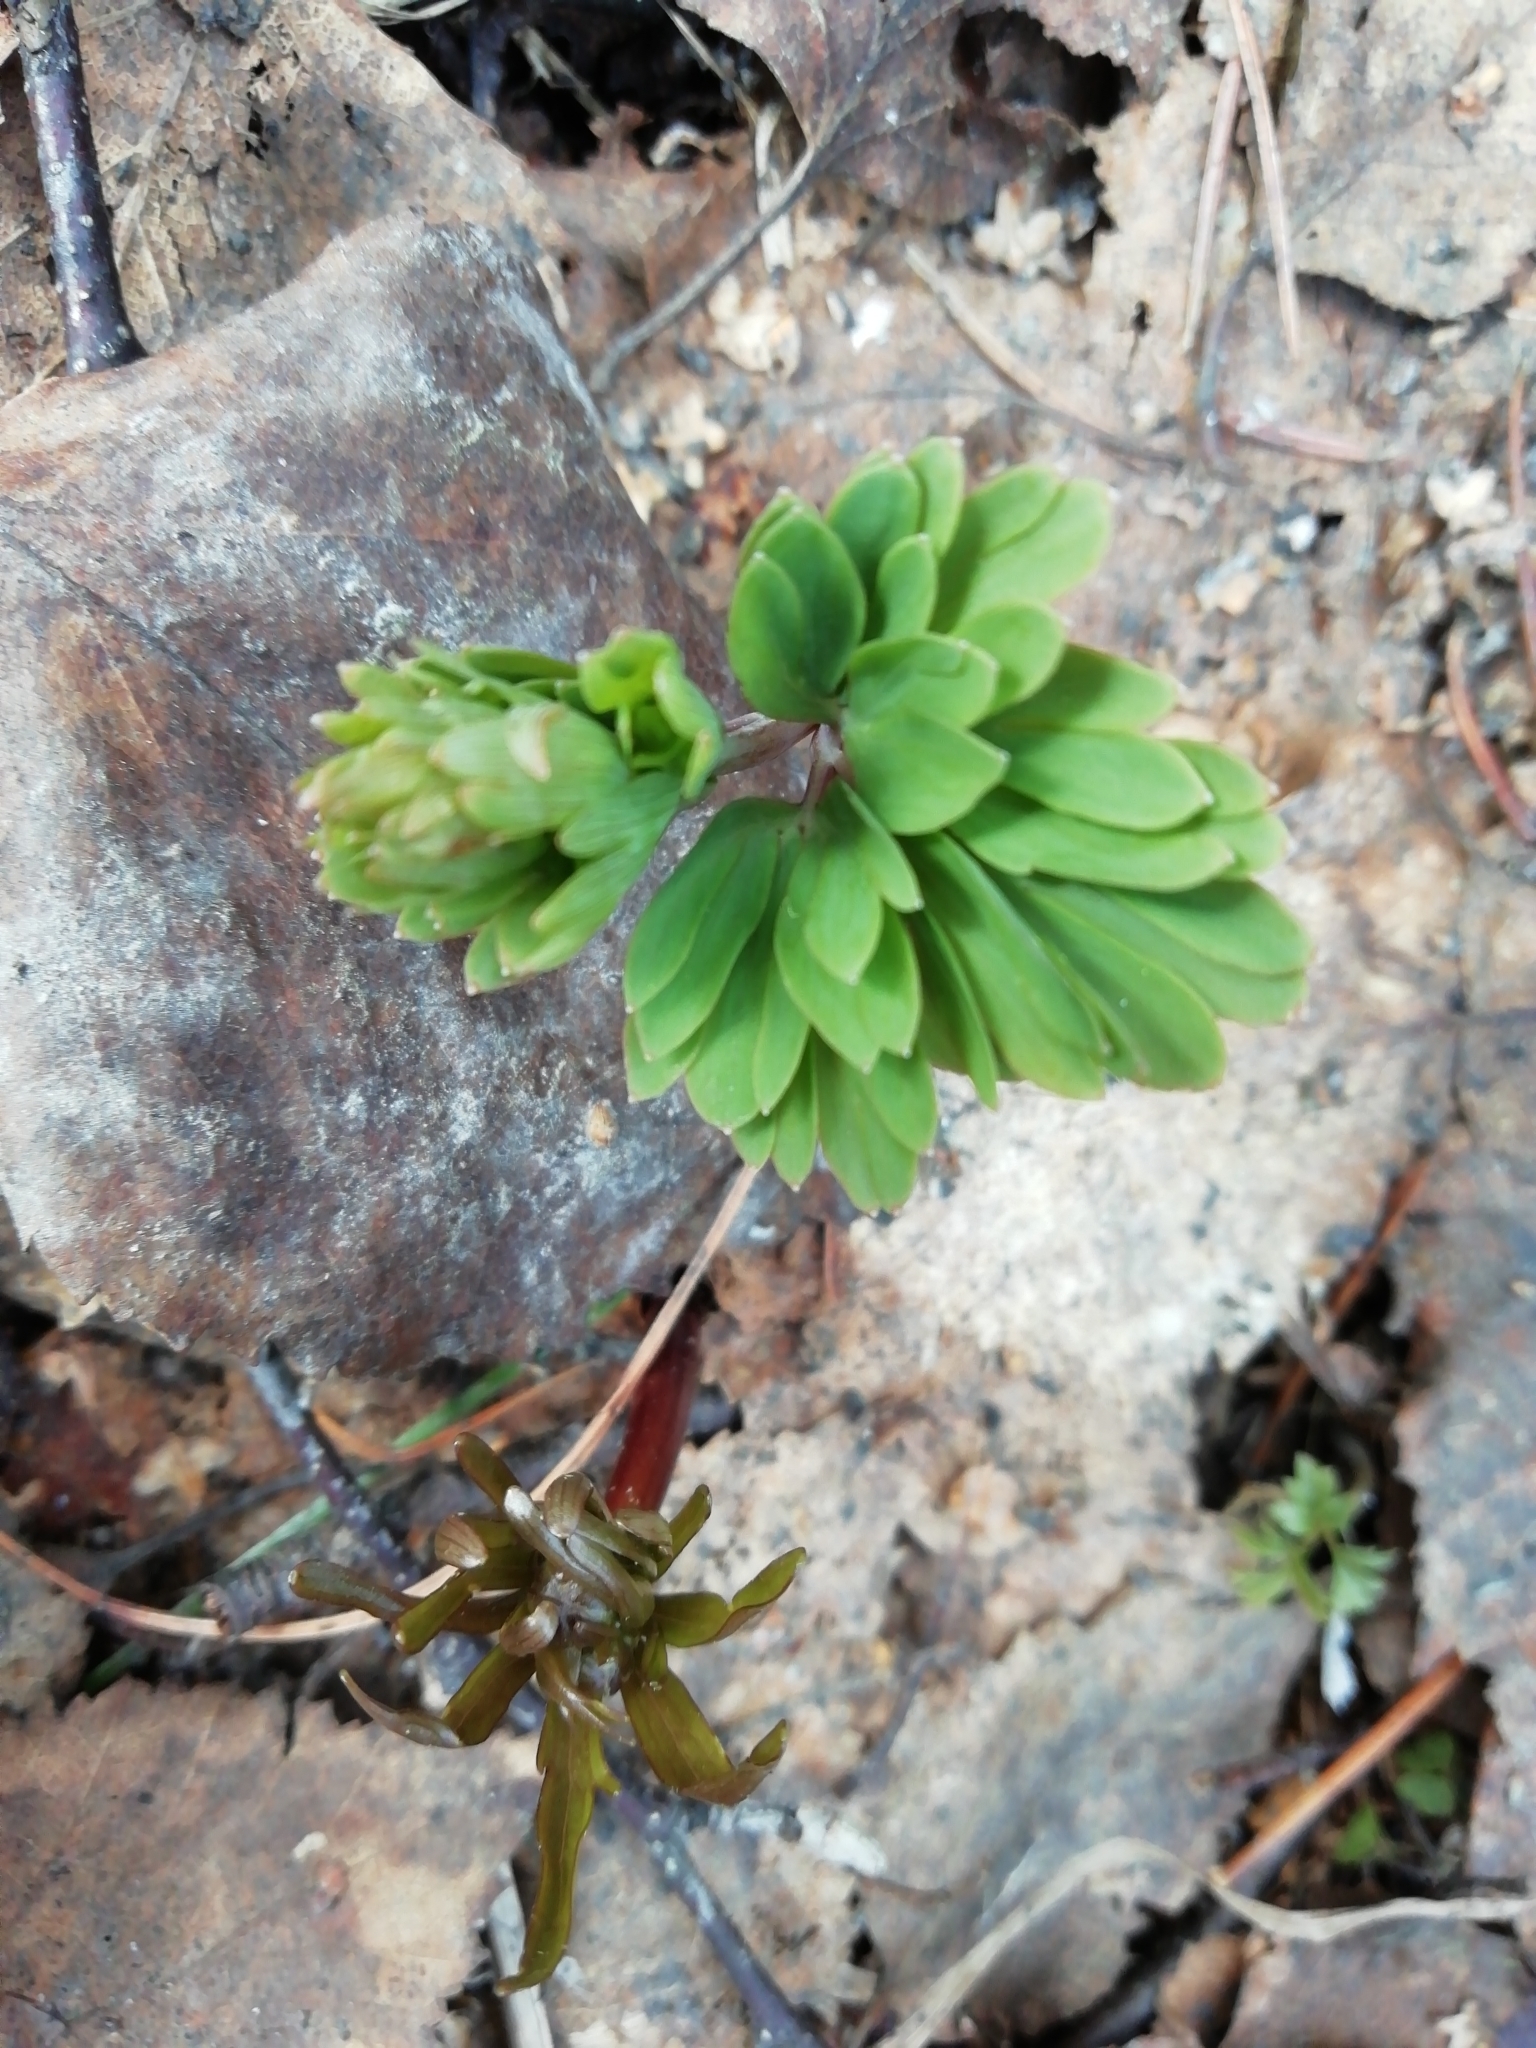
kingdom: Plantae
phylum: Tracheophyta
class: Magnoliopsida
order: Ranunculales
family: Papaveraceae
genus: Corydalis
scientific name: Corydalis bracteata
